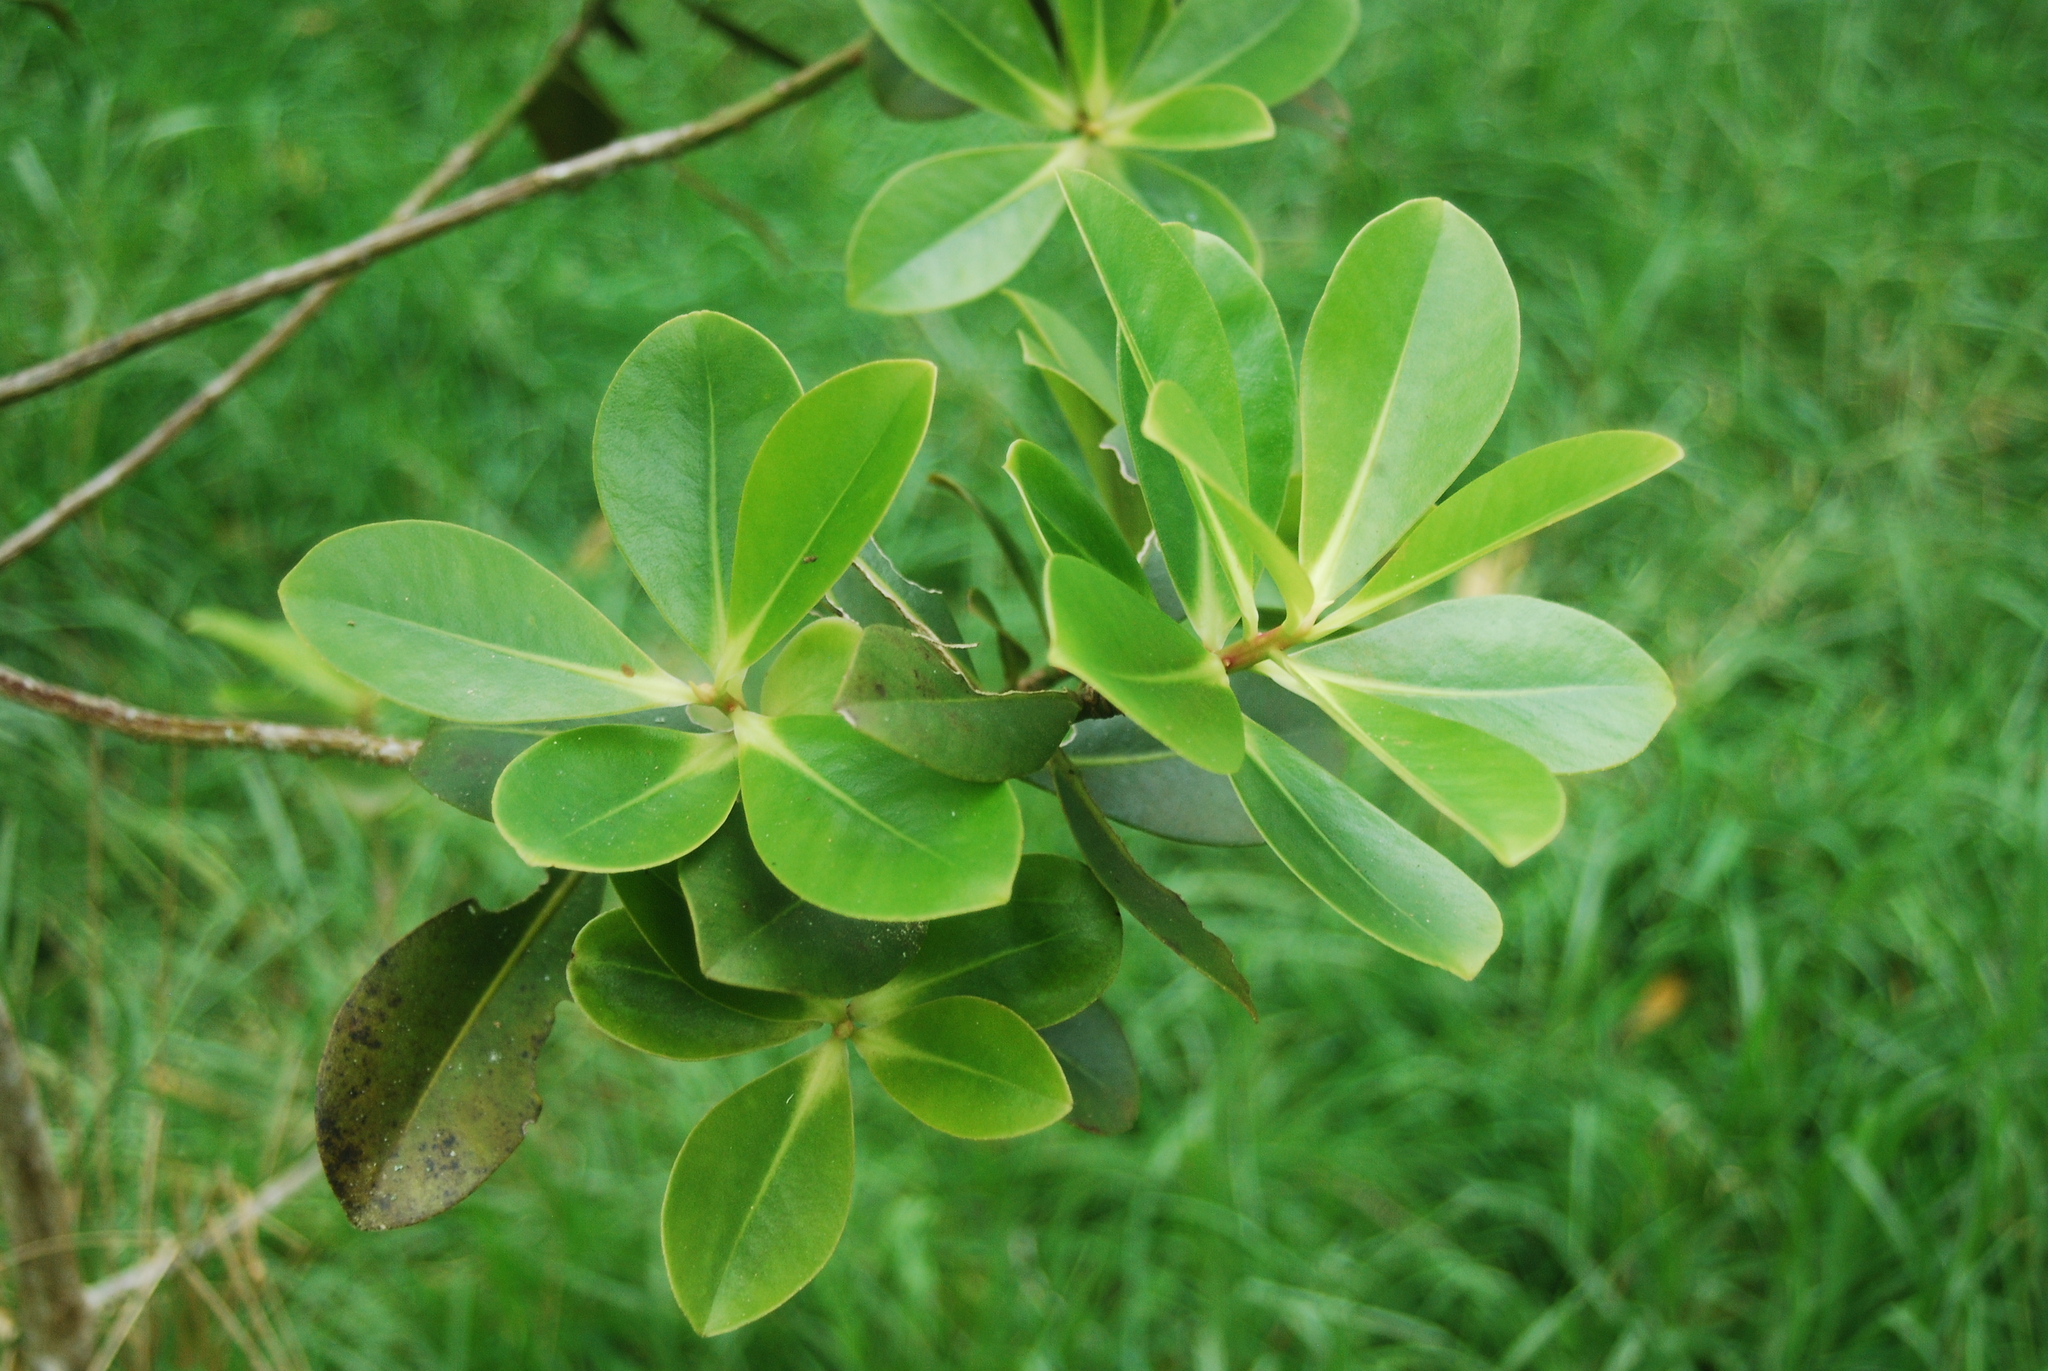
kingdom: Plantae
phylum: Tracheophyta
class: Magnoliopsida
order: Ericales
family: Primulaceae
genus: Myrsine
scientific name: Myrsine lessertiana
